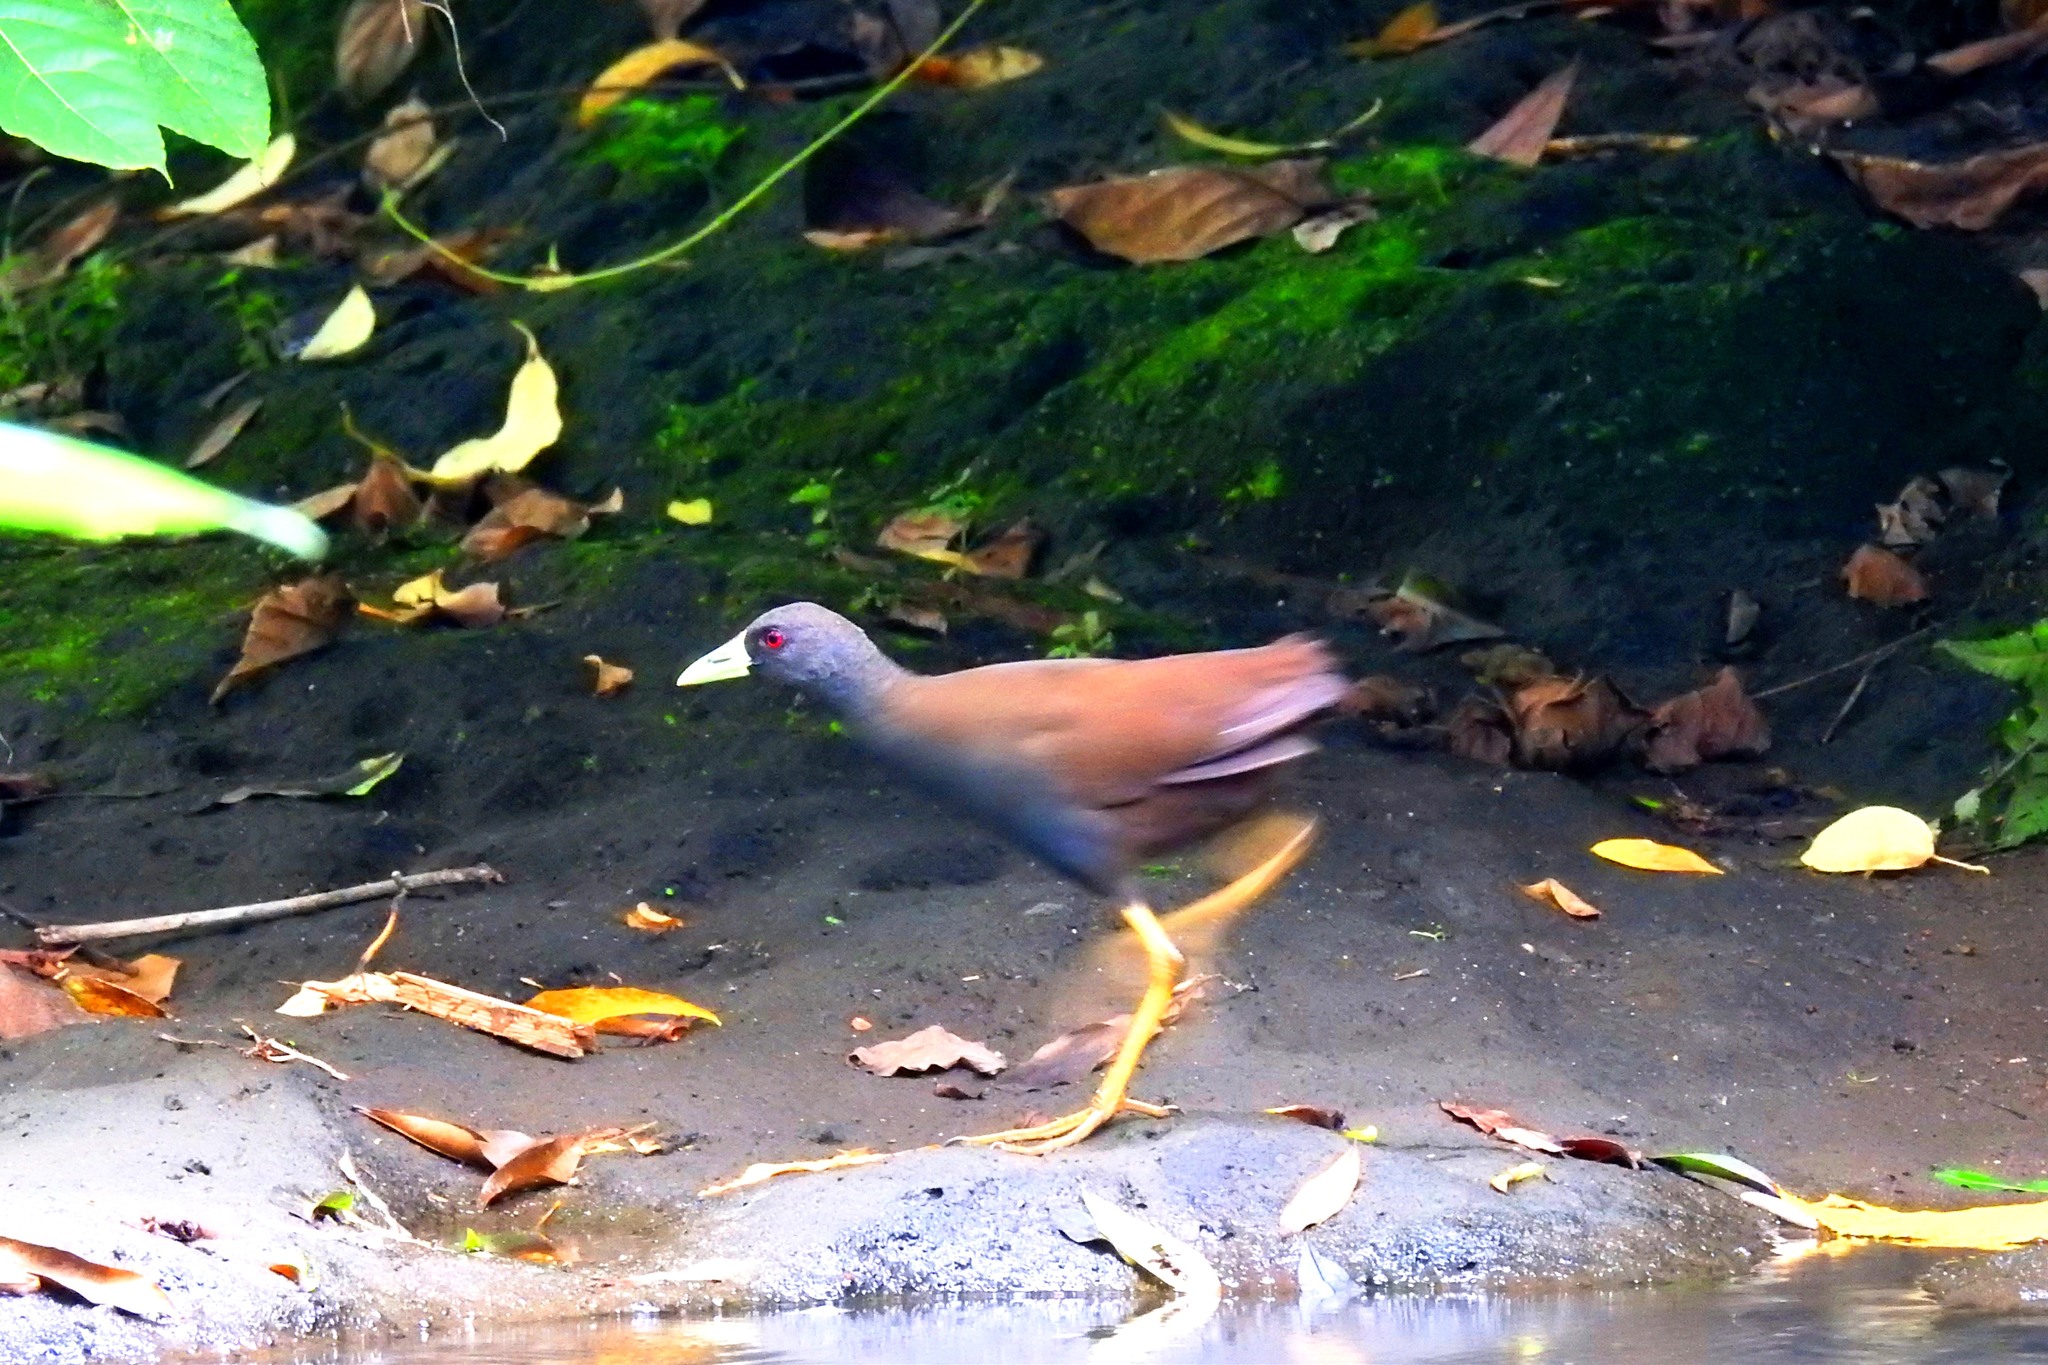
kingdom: Animalia
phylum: Chordata
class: Aves
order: Gruiformes
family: Rallidae
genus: Amaurornis
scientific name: Amaurornis olivacea
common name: Plain bush-hen
